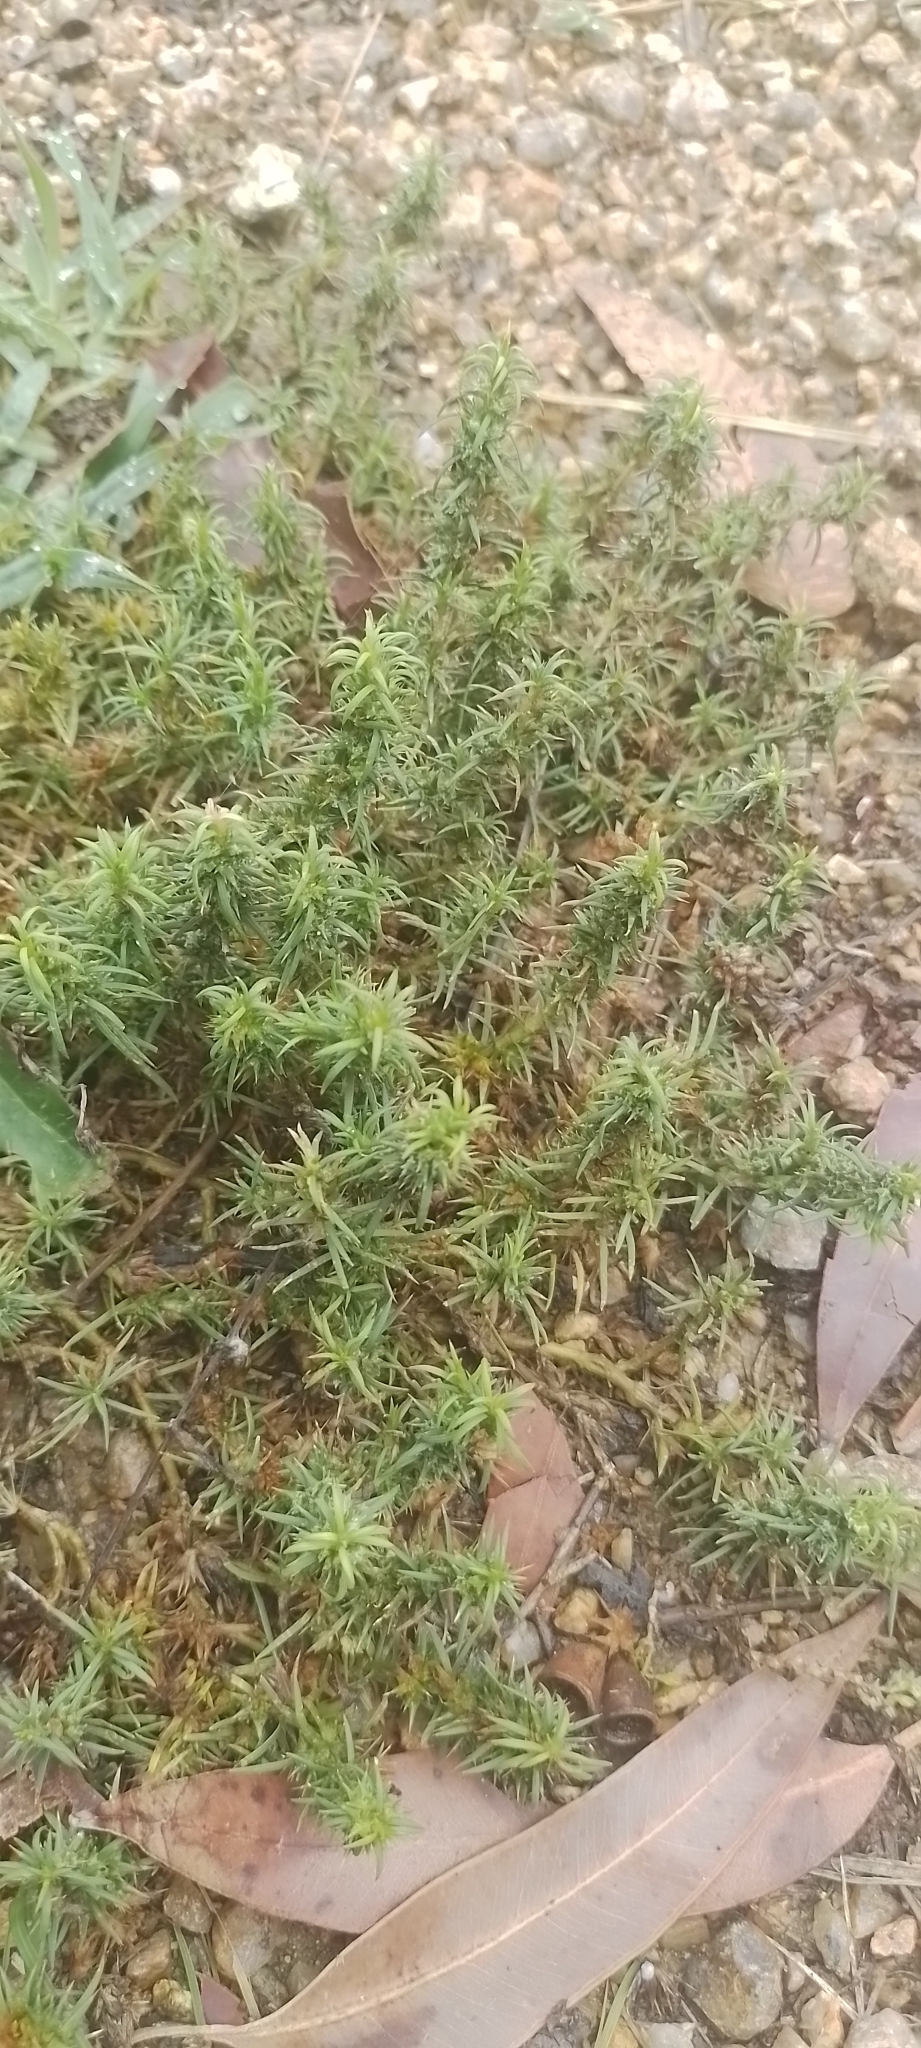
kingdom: Plantae
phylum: Tracheophyta
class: Magnoliopsida
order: Caryophyllales
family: Caryophyllaceae
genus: Cardionema
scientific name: Cardionema ramosissima
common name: Sandcarpet
